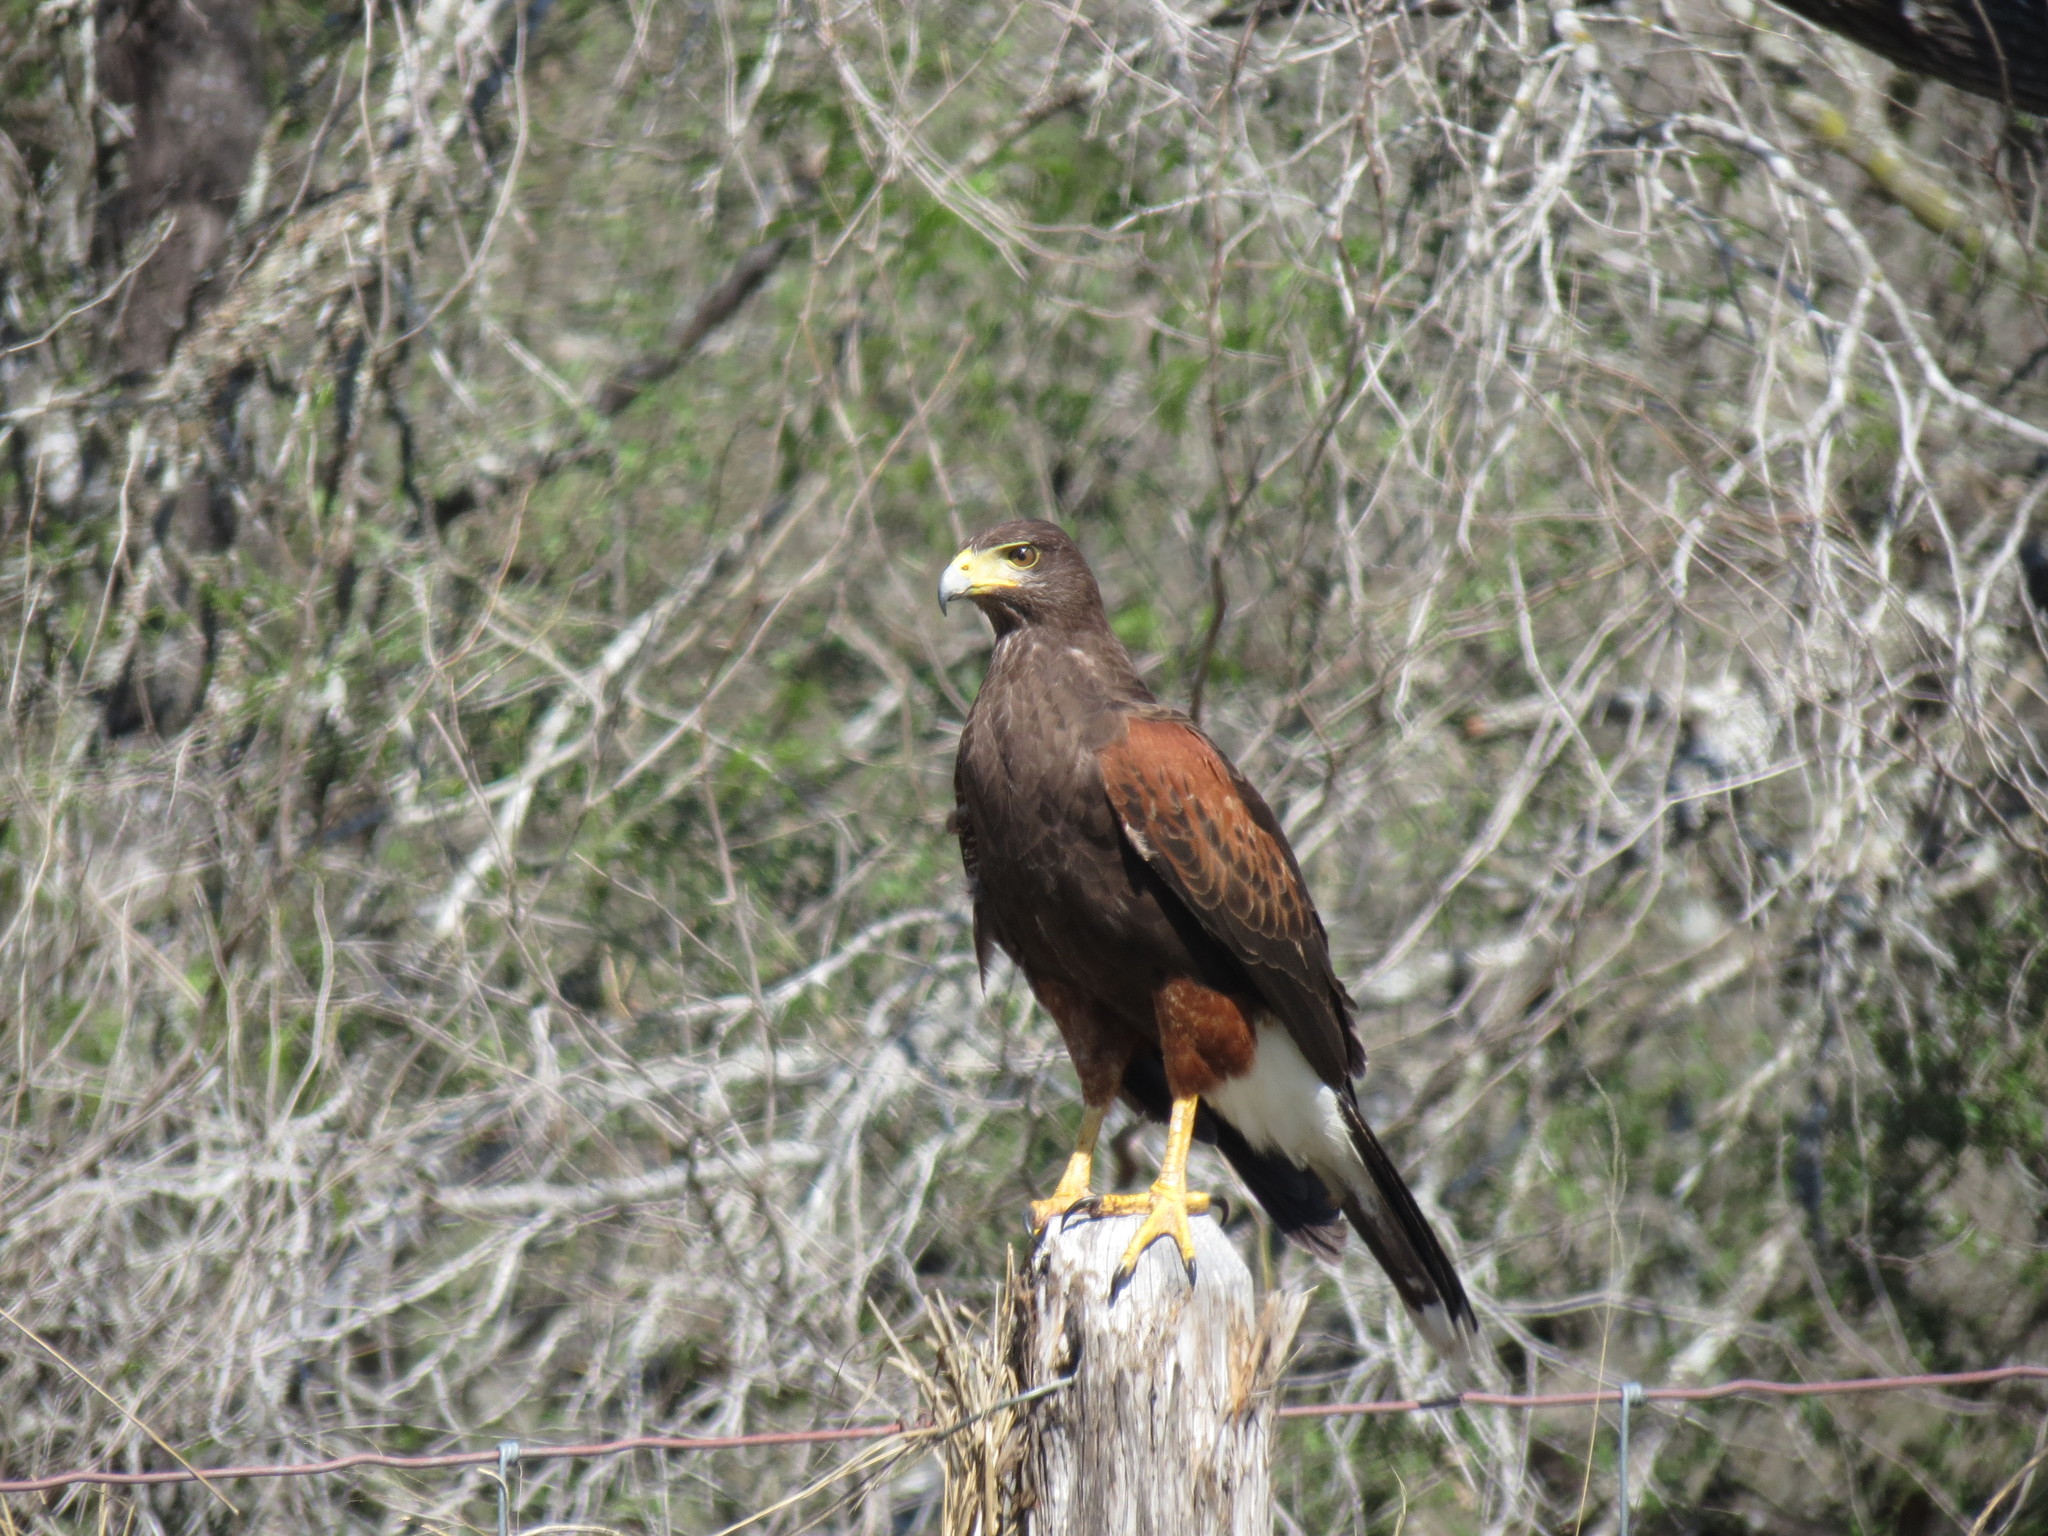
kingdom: Animalia
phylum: Chordata
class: Aves
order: Accipitriformes
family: Accipitridae
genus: Parabuteo
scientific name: Parabuteo unicinctus
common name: Harris's hawk
